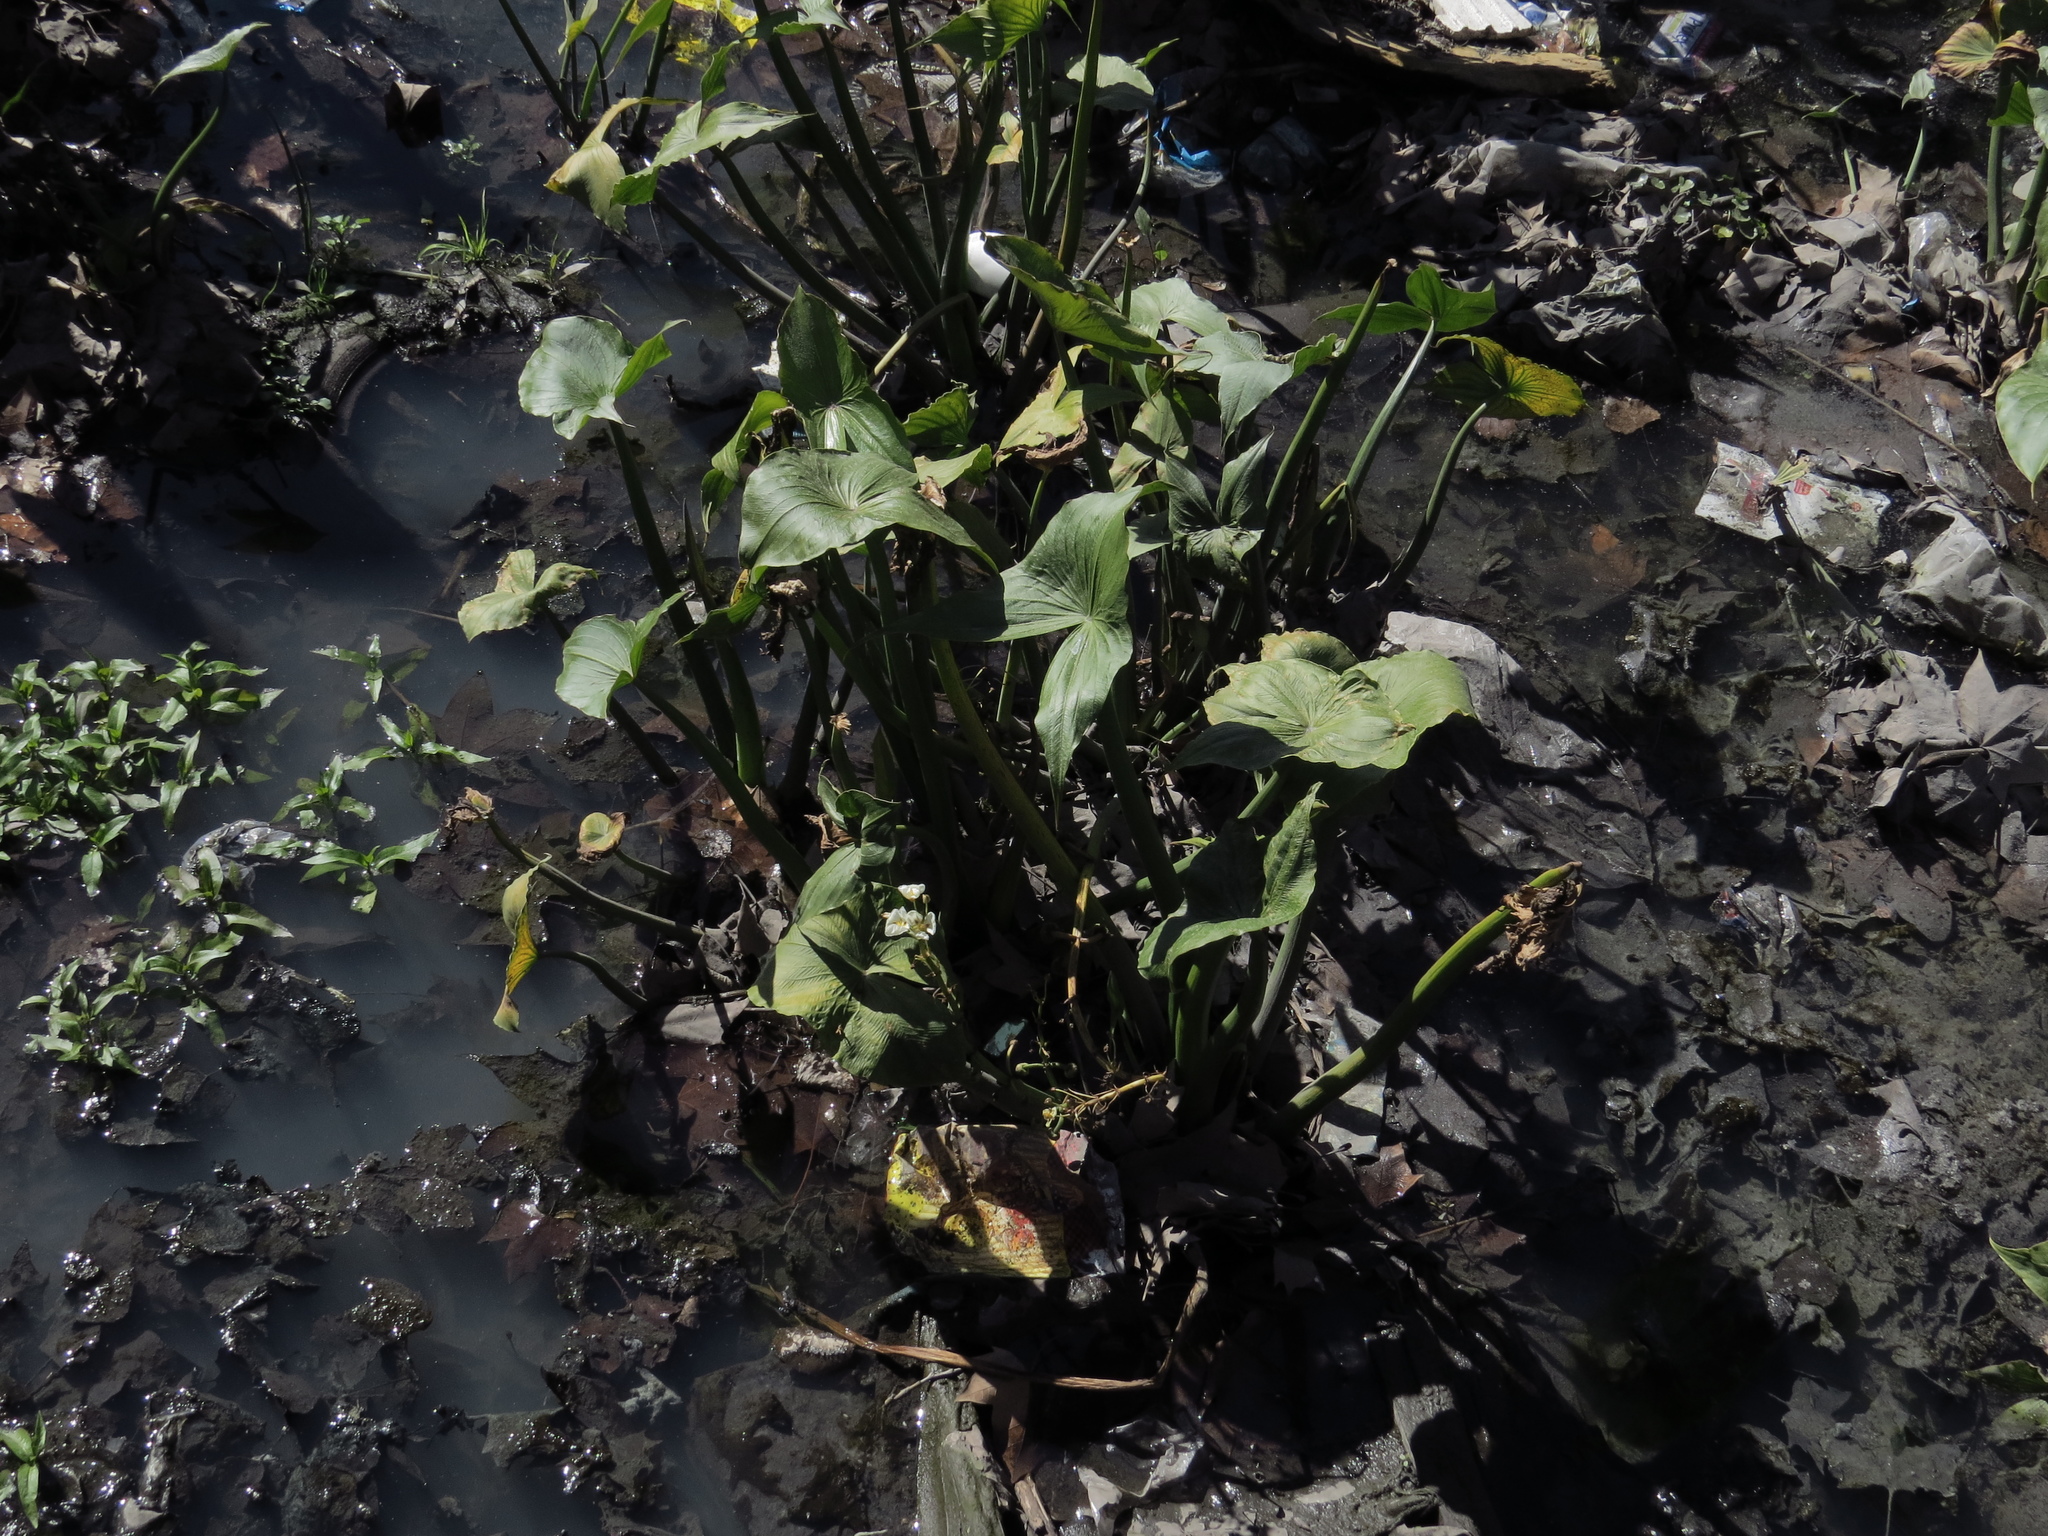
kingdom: Plantae
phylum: Tracheophyta
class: Liliopsida
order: Alismatales
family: Alismataceae
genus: Sagittaria
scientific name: Sagittaria montevidensis
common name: Giant arrowhead
